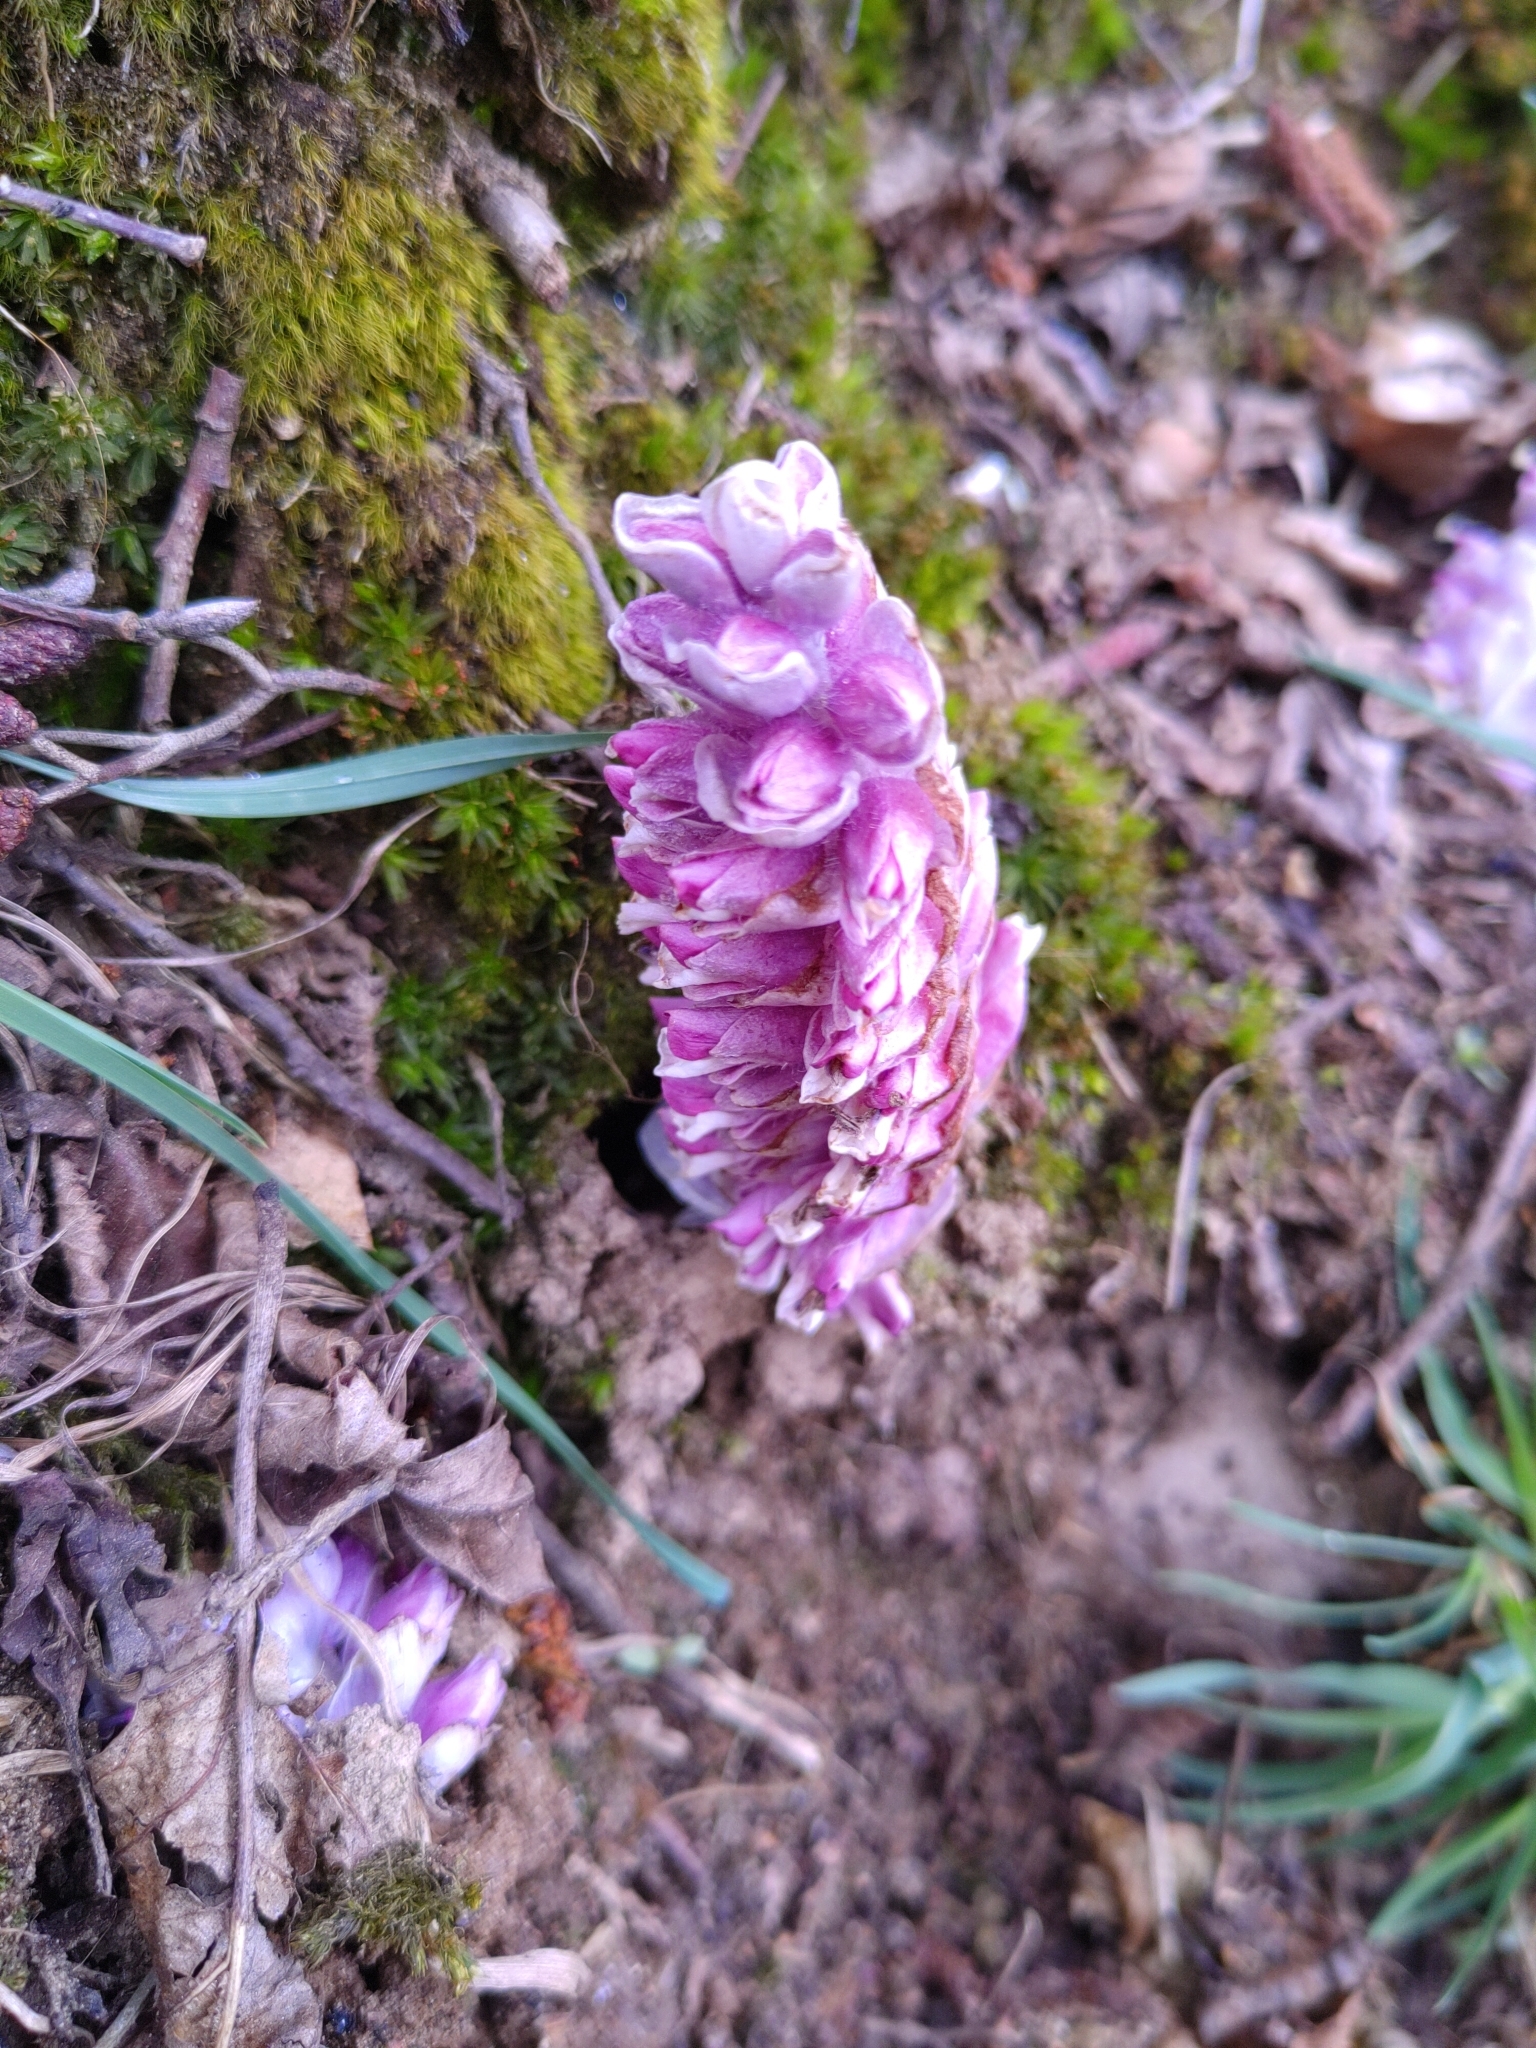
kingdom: Plantae
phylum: Tracheophyta
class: Magnoliopsida
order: Lamiales
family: Orobanchaceae
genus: Lathraea
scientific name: Lathraea squamaria
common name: Toothwort
